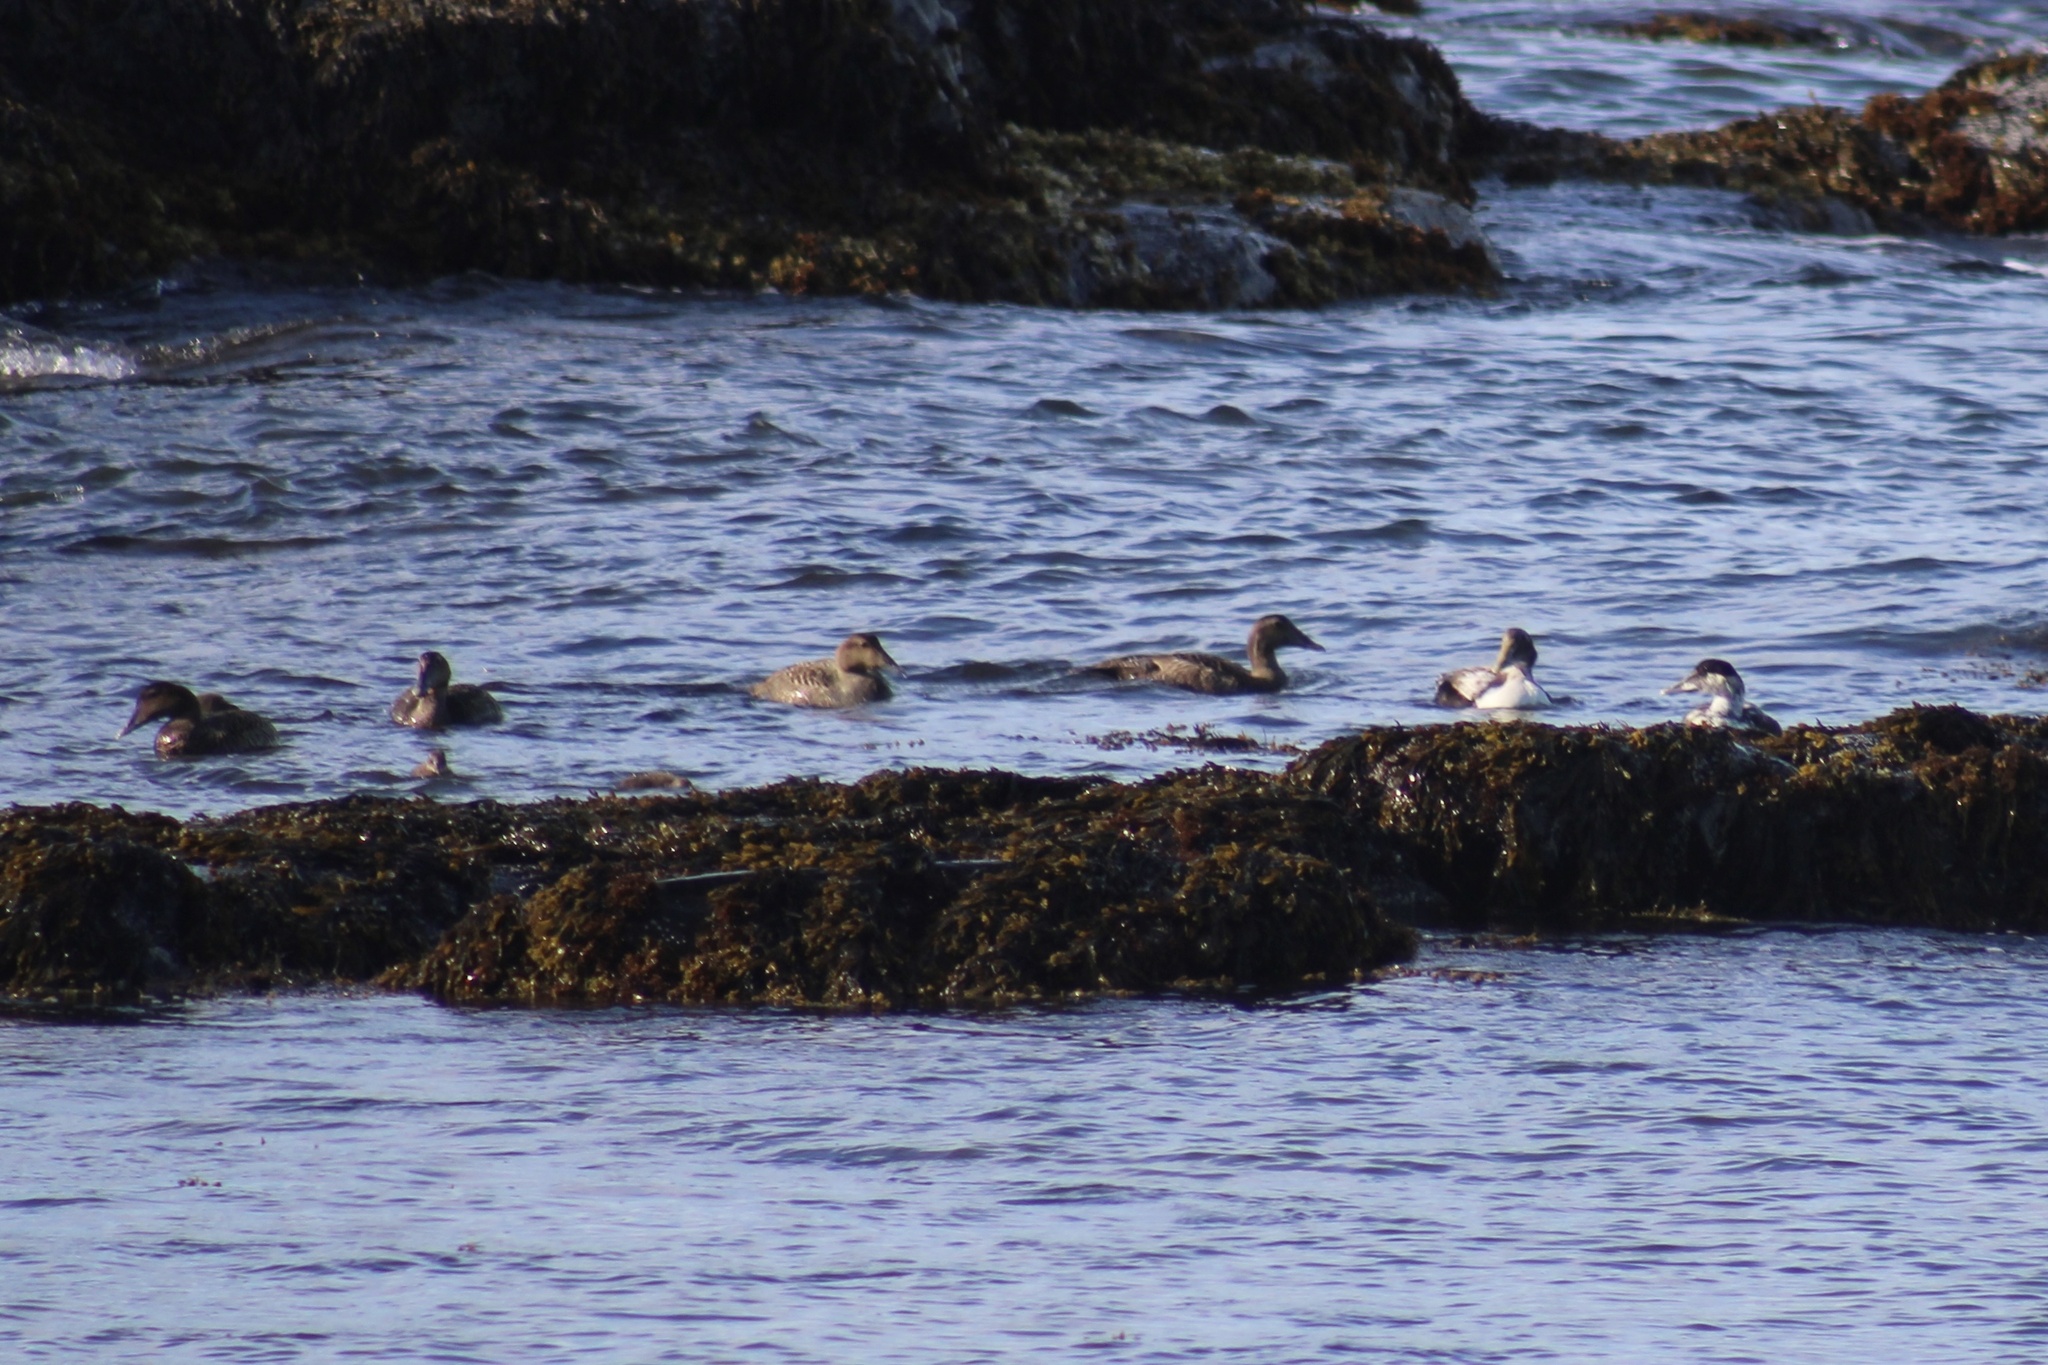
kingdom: Animalia
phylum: Chordata
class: Aves
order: Anseriformes
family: Anatidae
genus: Somateria
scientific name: Somateria mollissima
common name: Common eider
